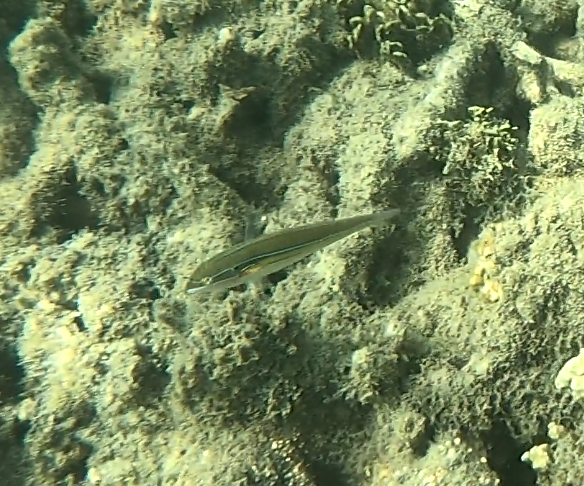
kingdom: Animalia
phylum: Chordata
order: Perciformes
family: Labridae
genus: Stethojulis
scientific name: Stethojulis strigiventer
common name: Three-ribbon wrasse
